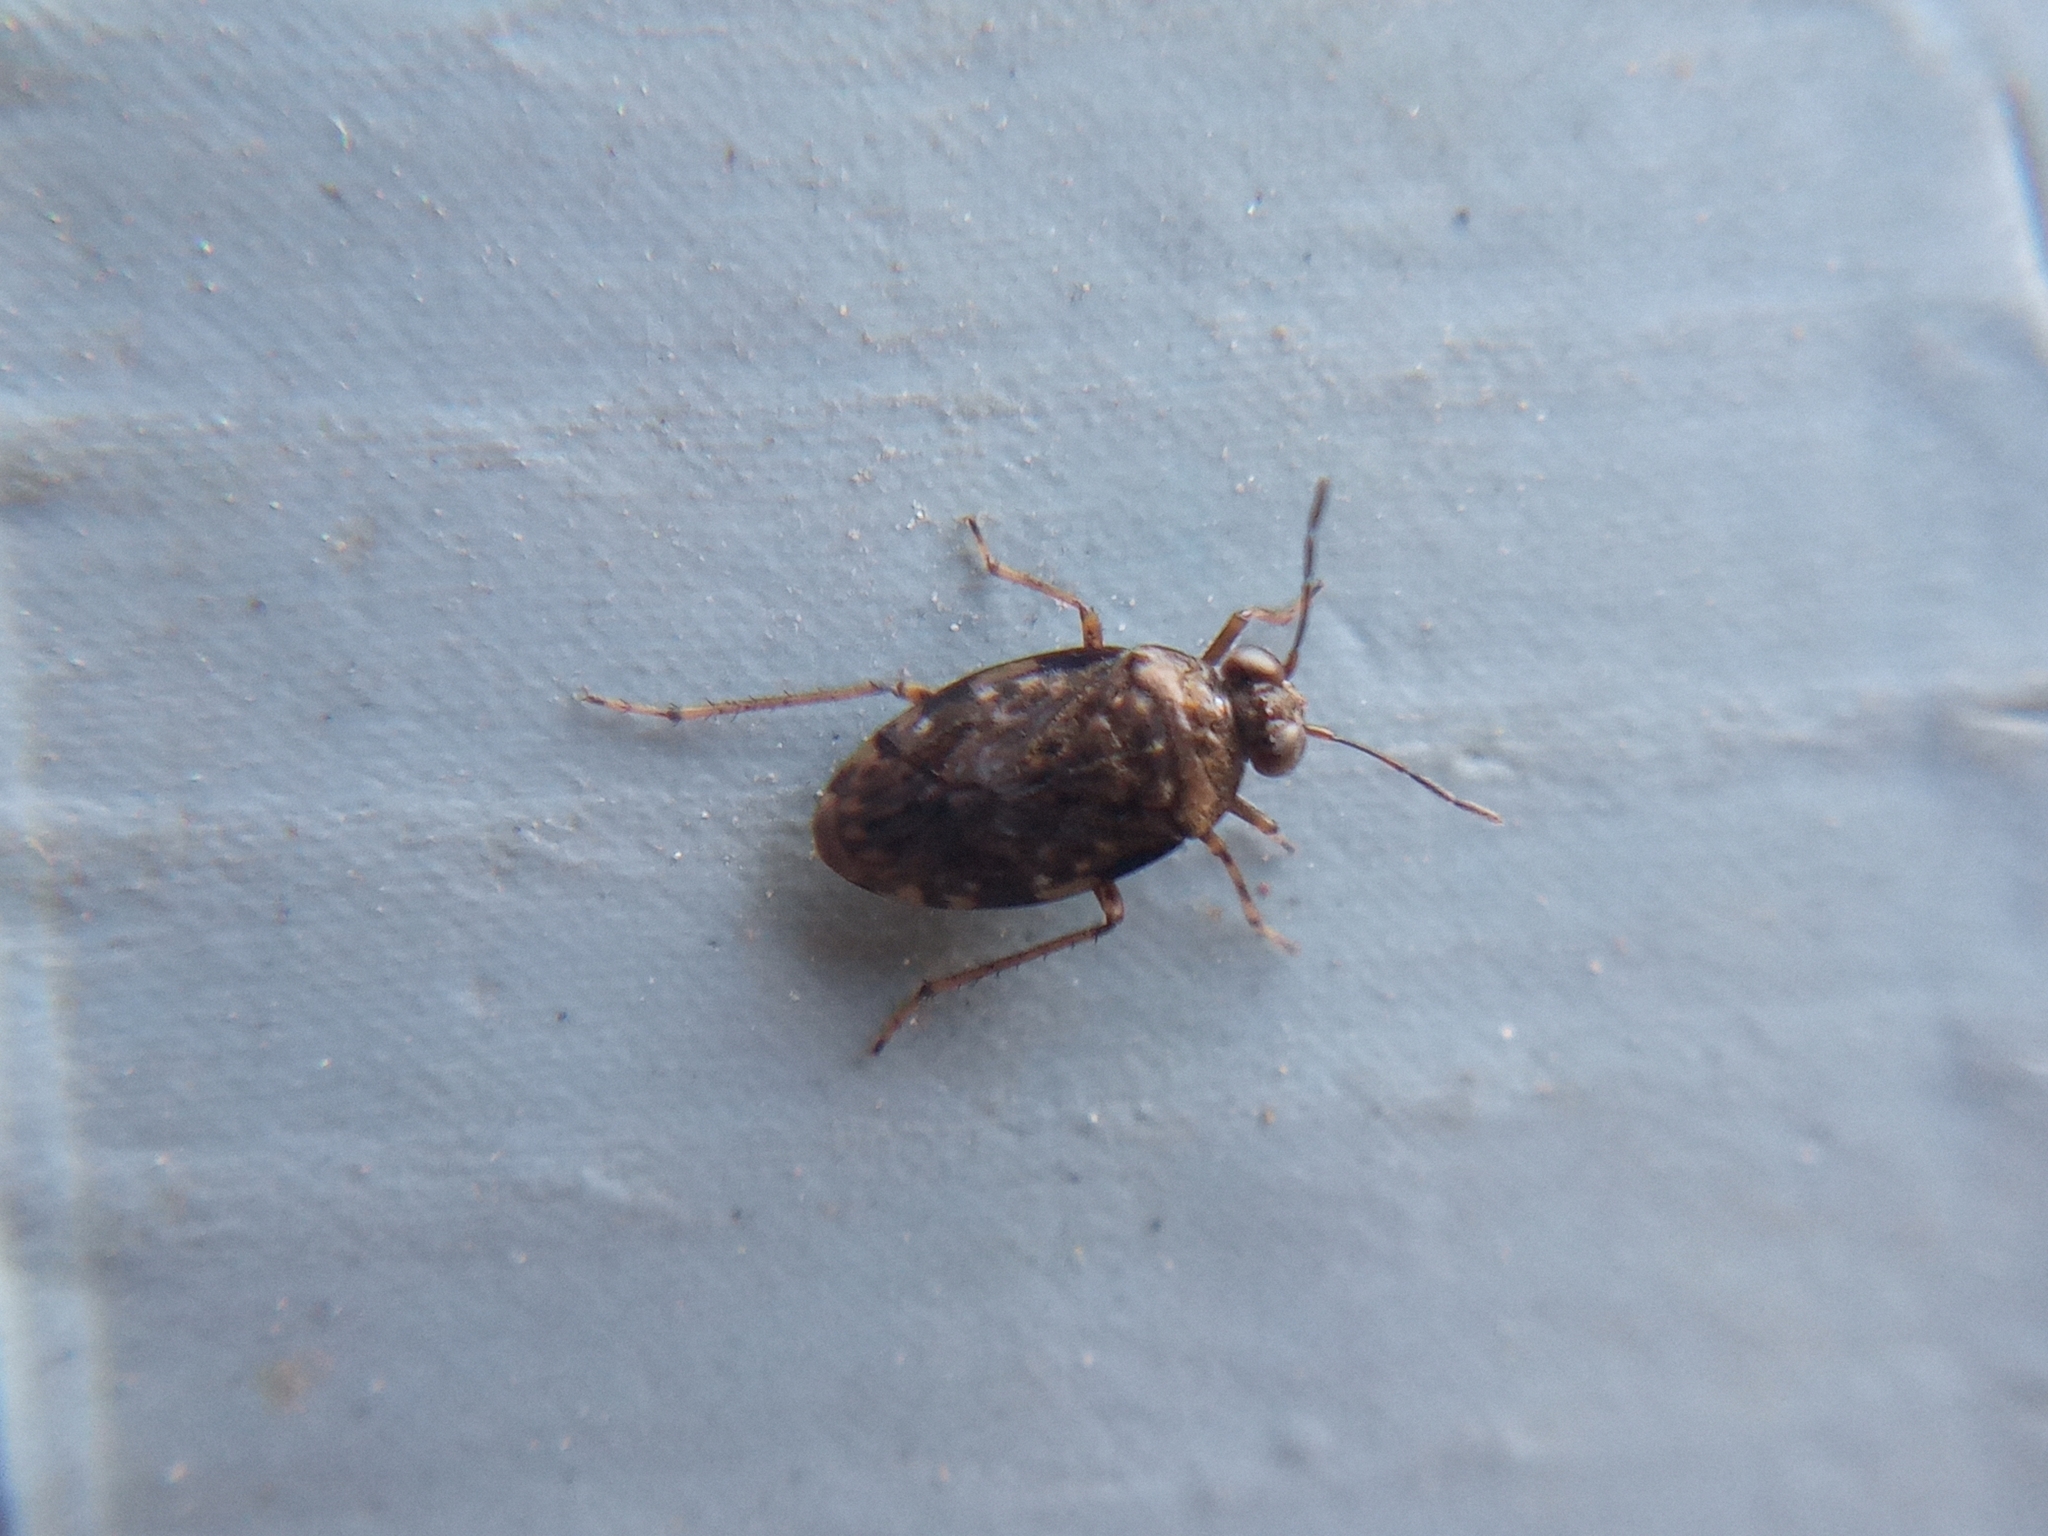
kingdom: Animalia
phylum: Arthropoda
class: Insecta
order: Hemiptera
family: Saldidae
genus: Saldula
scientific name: Saldula saltatoria
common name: Common shorebug
